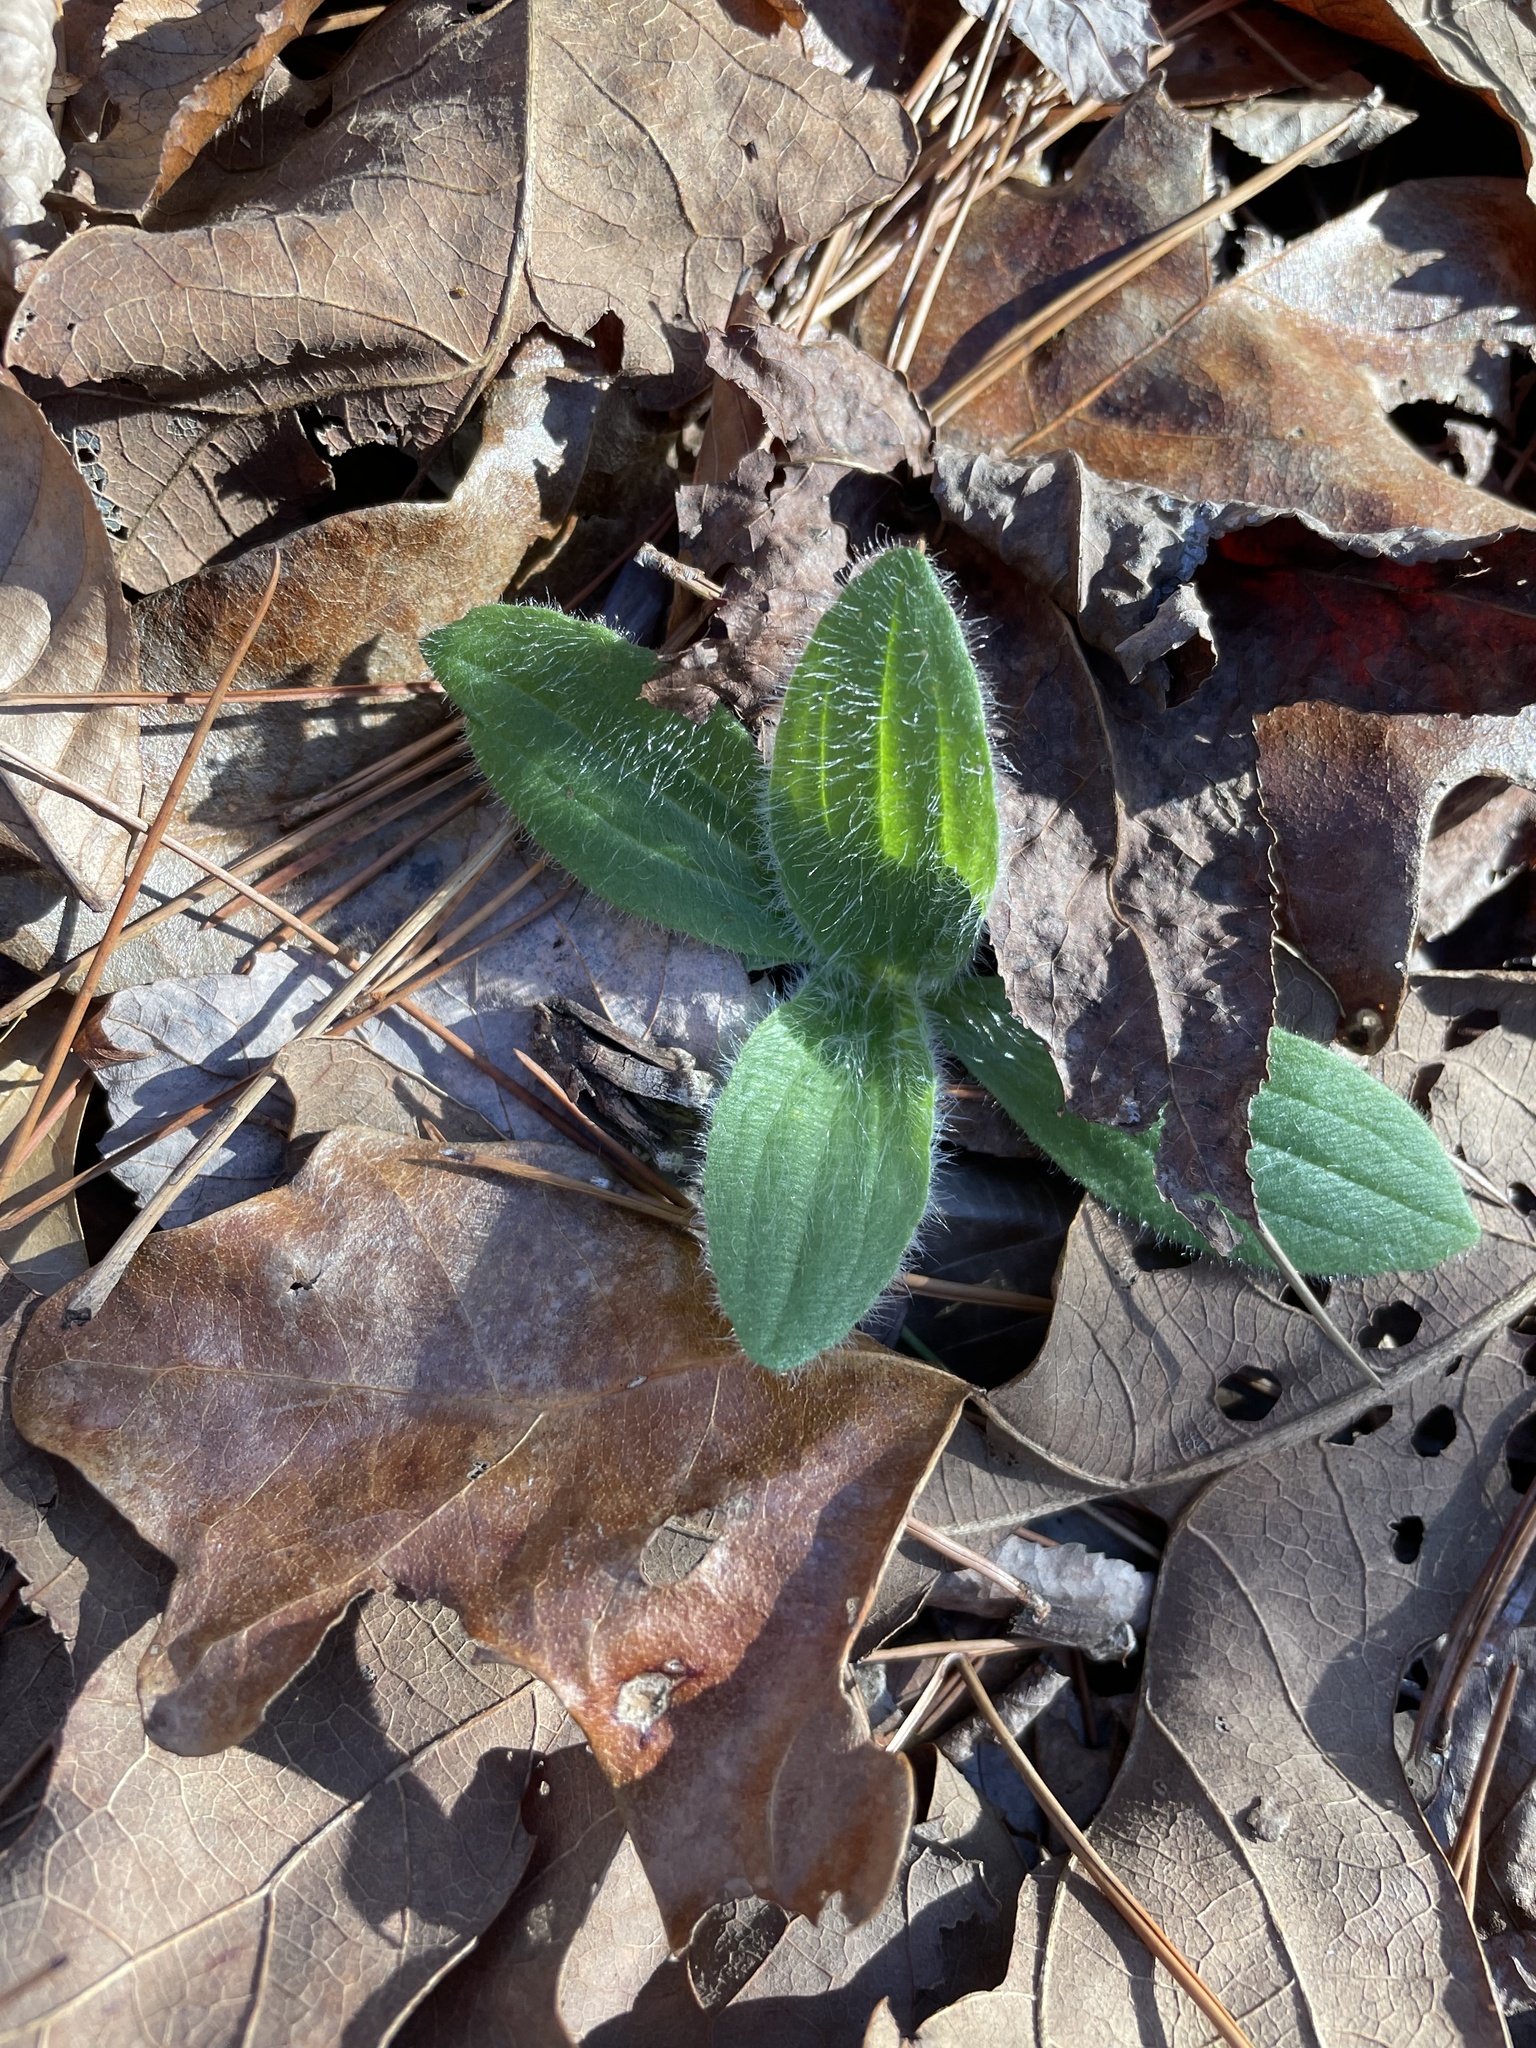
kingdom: Plantae
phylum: Tracheophyta
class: Magnoliopsida
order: Asterales
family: Asteraceae
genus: Arnica
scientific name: Arnica acaulis
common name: Common leopardbane
